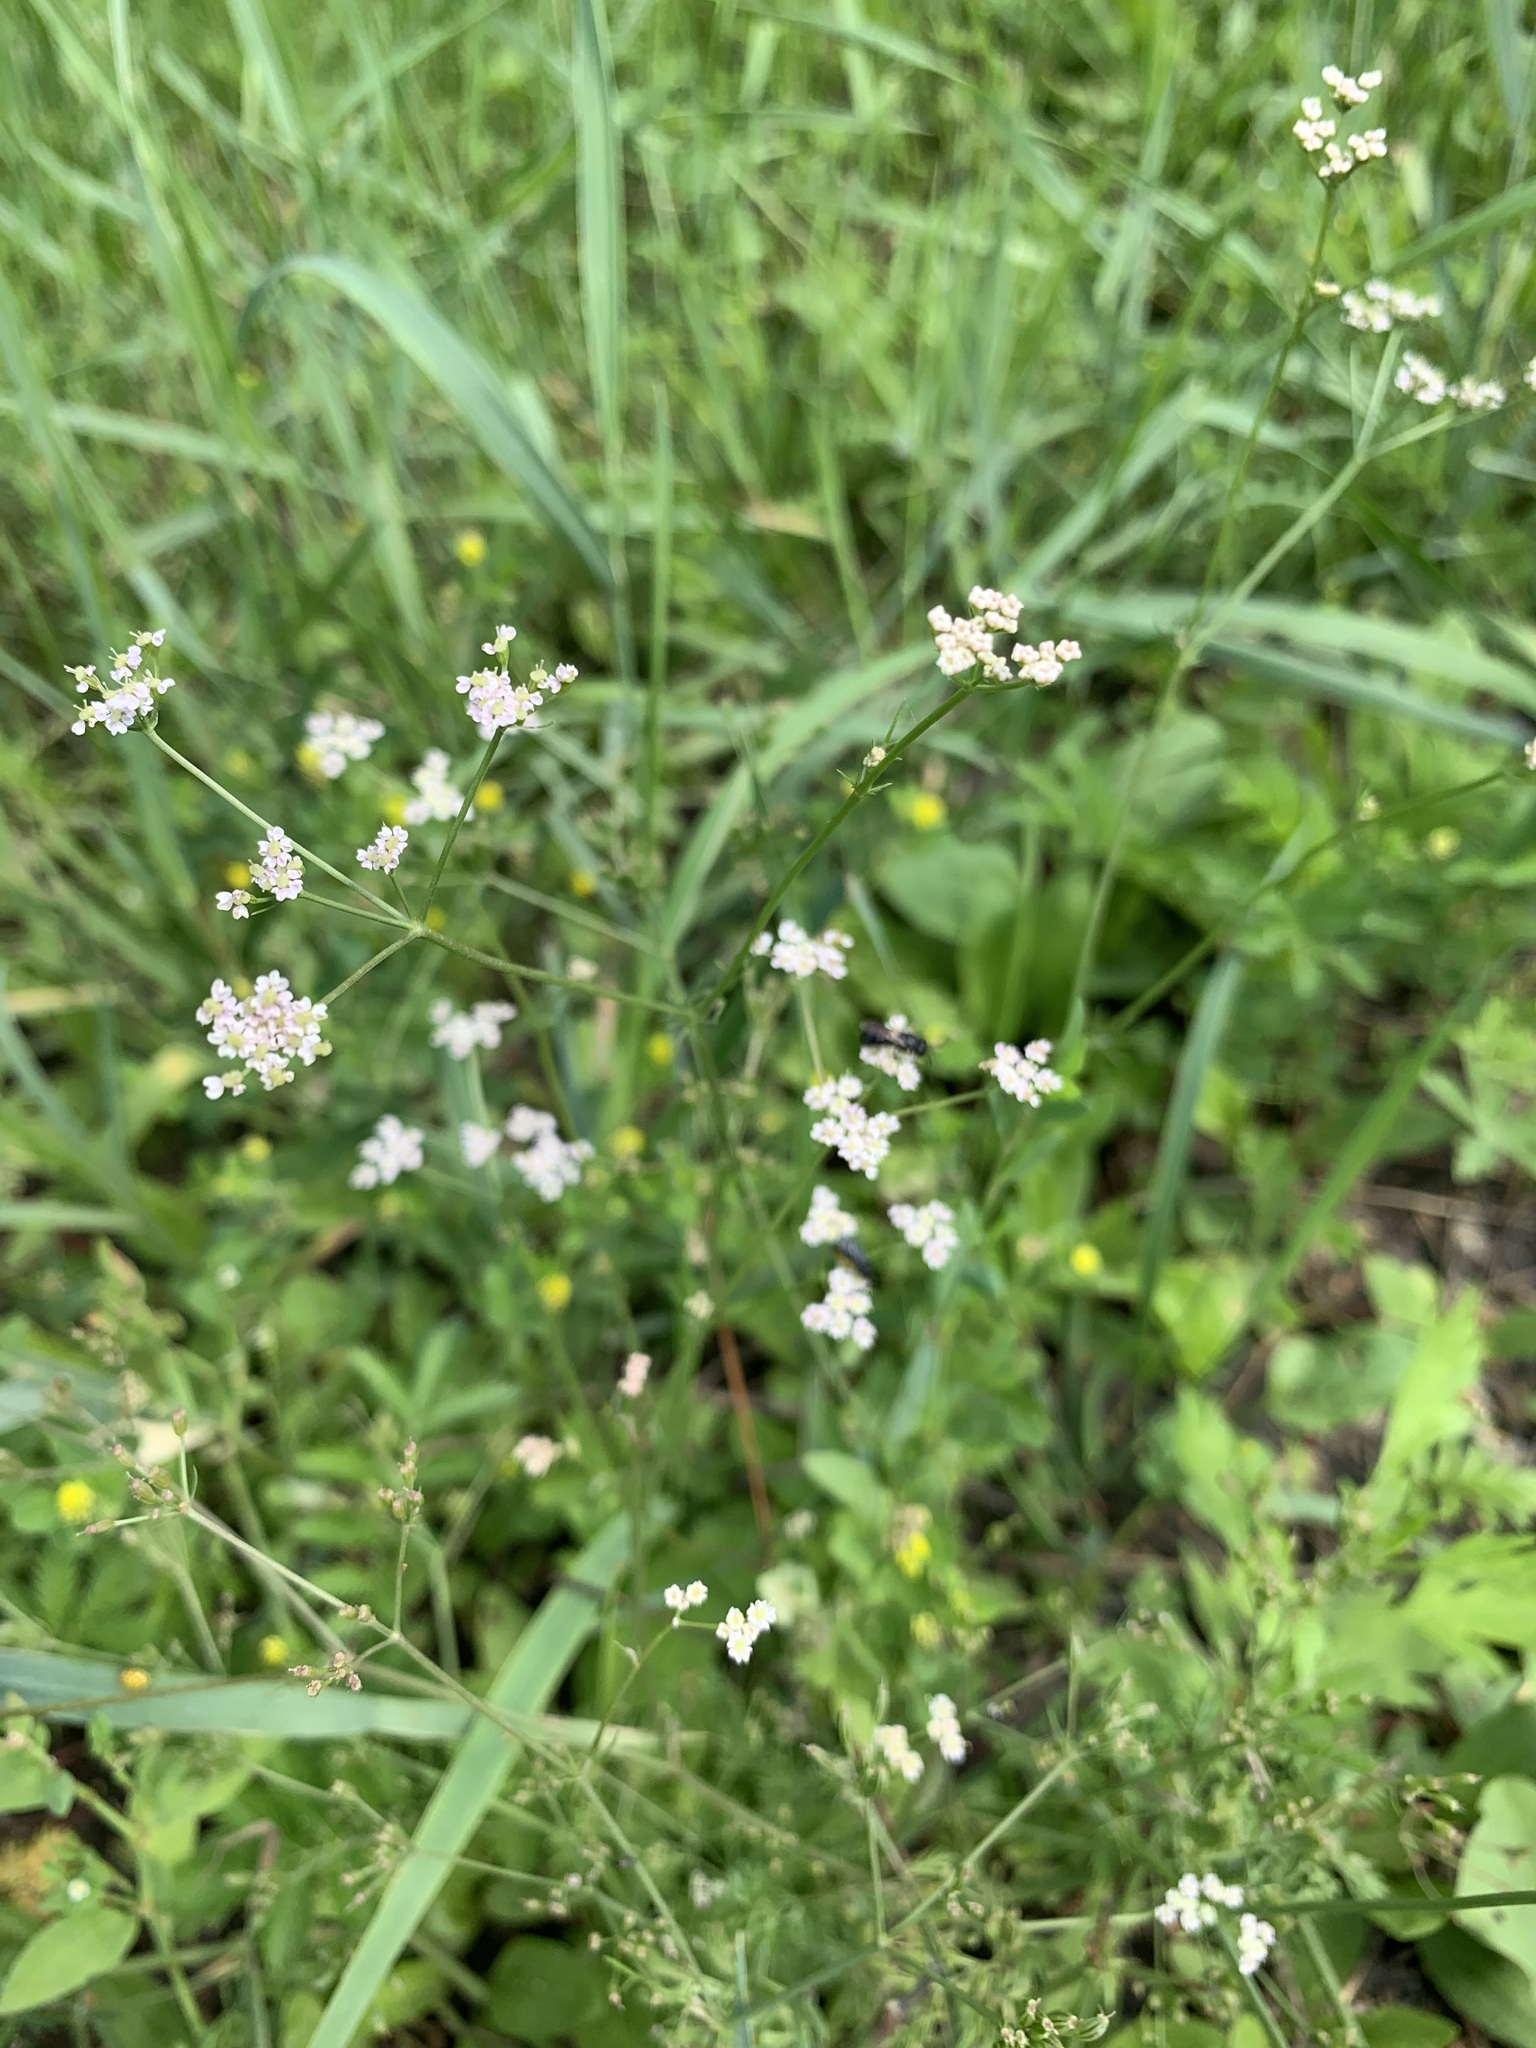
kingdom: Plantae
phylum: Tracheophyta
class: Magnoliopsida
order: Apiales
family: Apiaceae
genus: Carum
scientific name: Carum carvi
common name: Caraway
